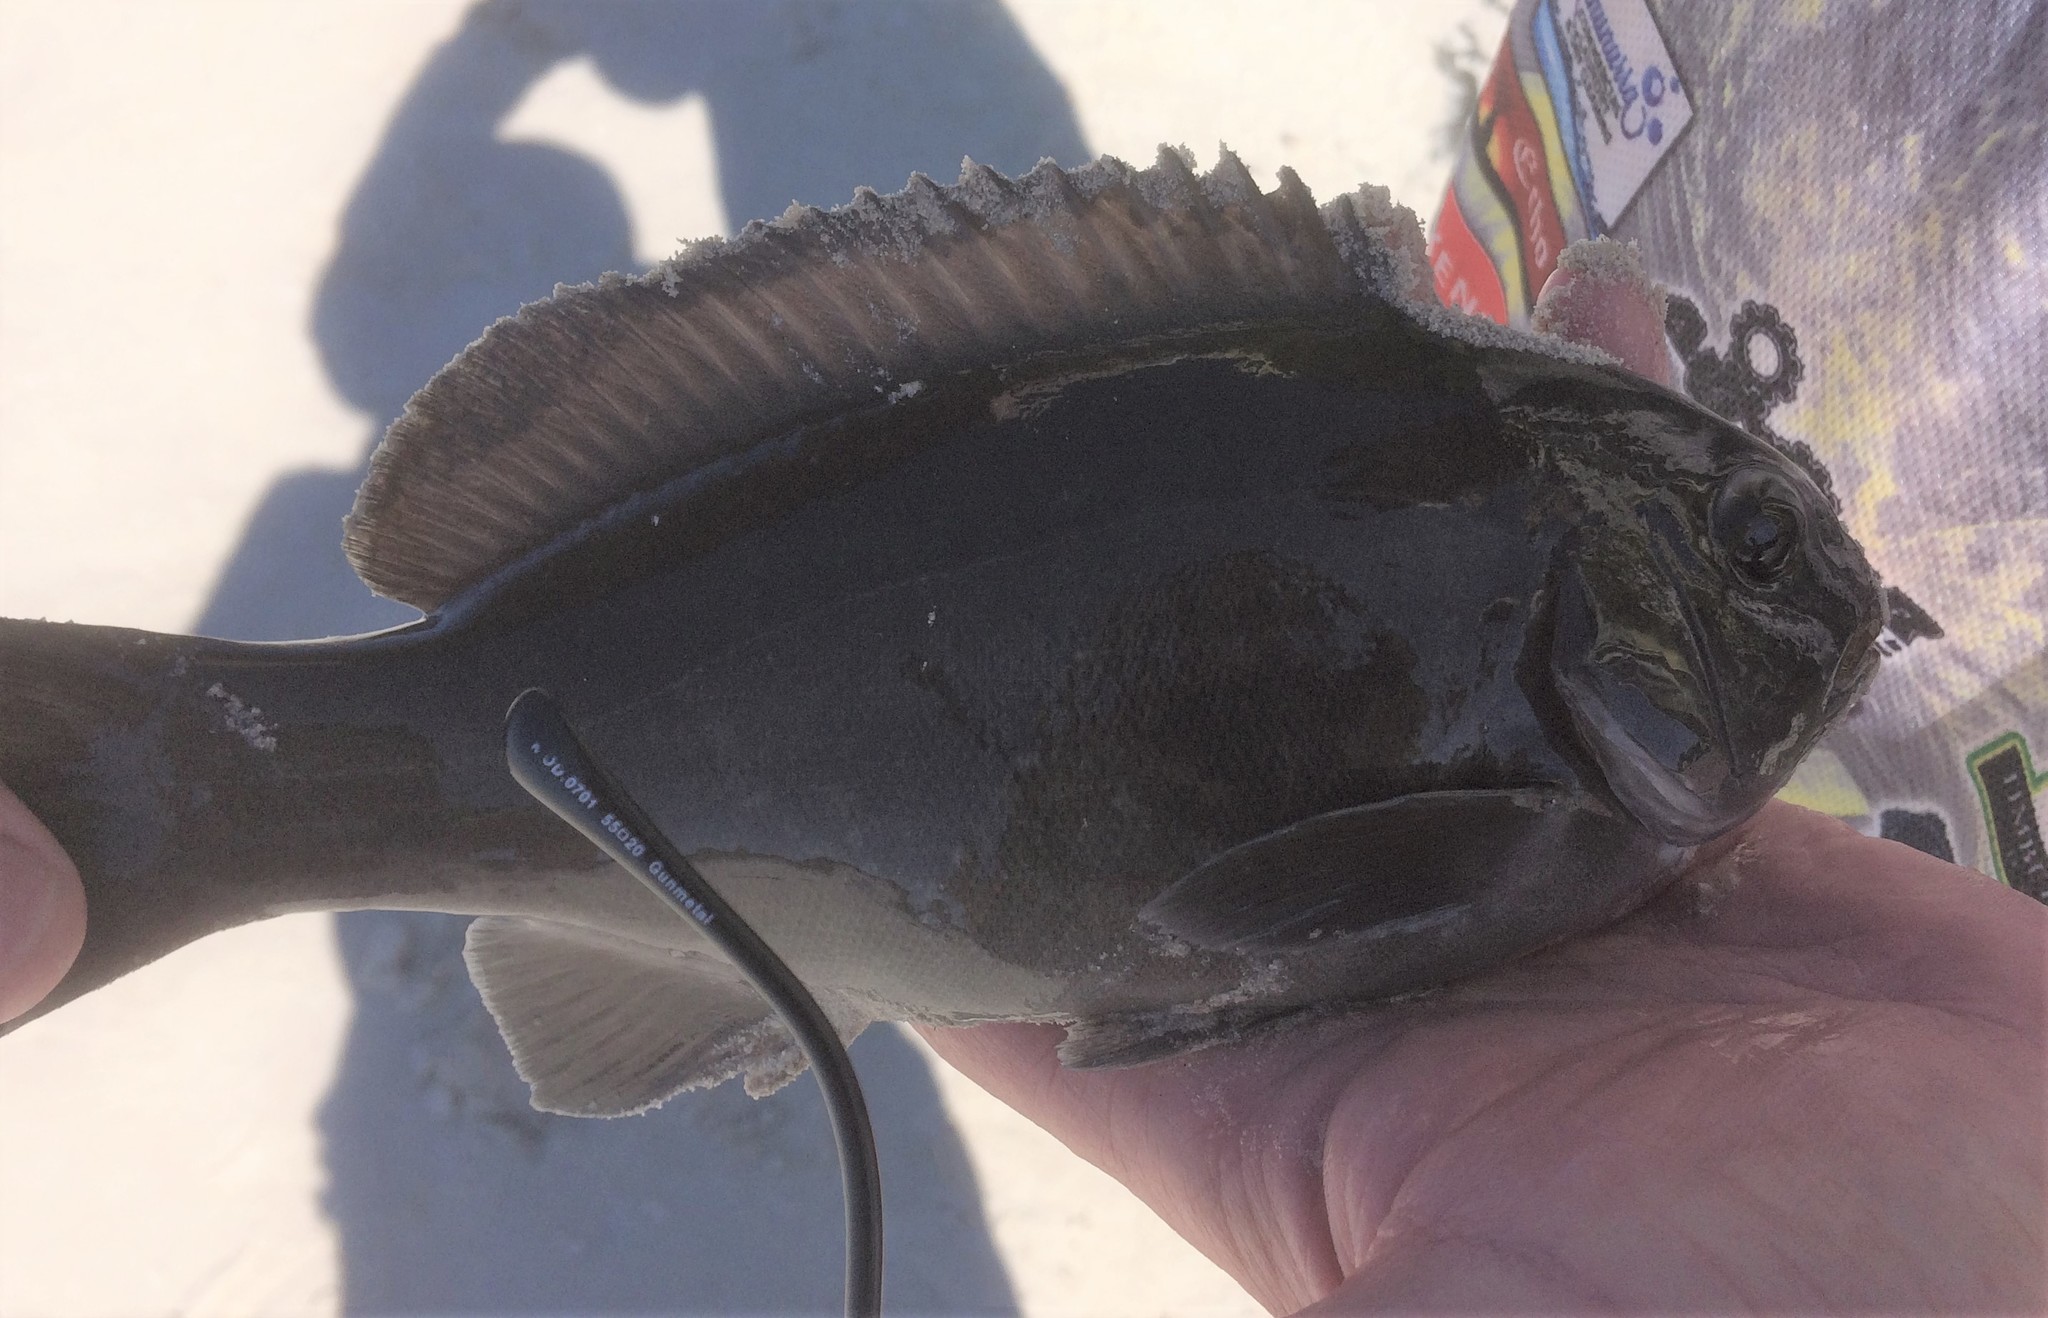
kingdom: Animalia
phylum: Chordata
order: Perciformes
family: Kyphosidae
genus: Girella
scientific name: Girella tephraeops
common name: Chad
